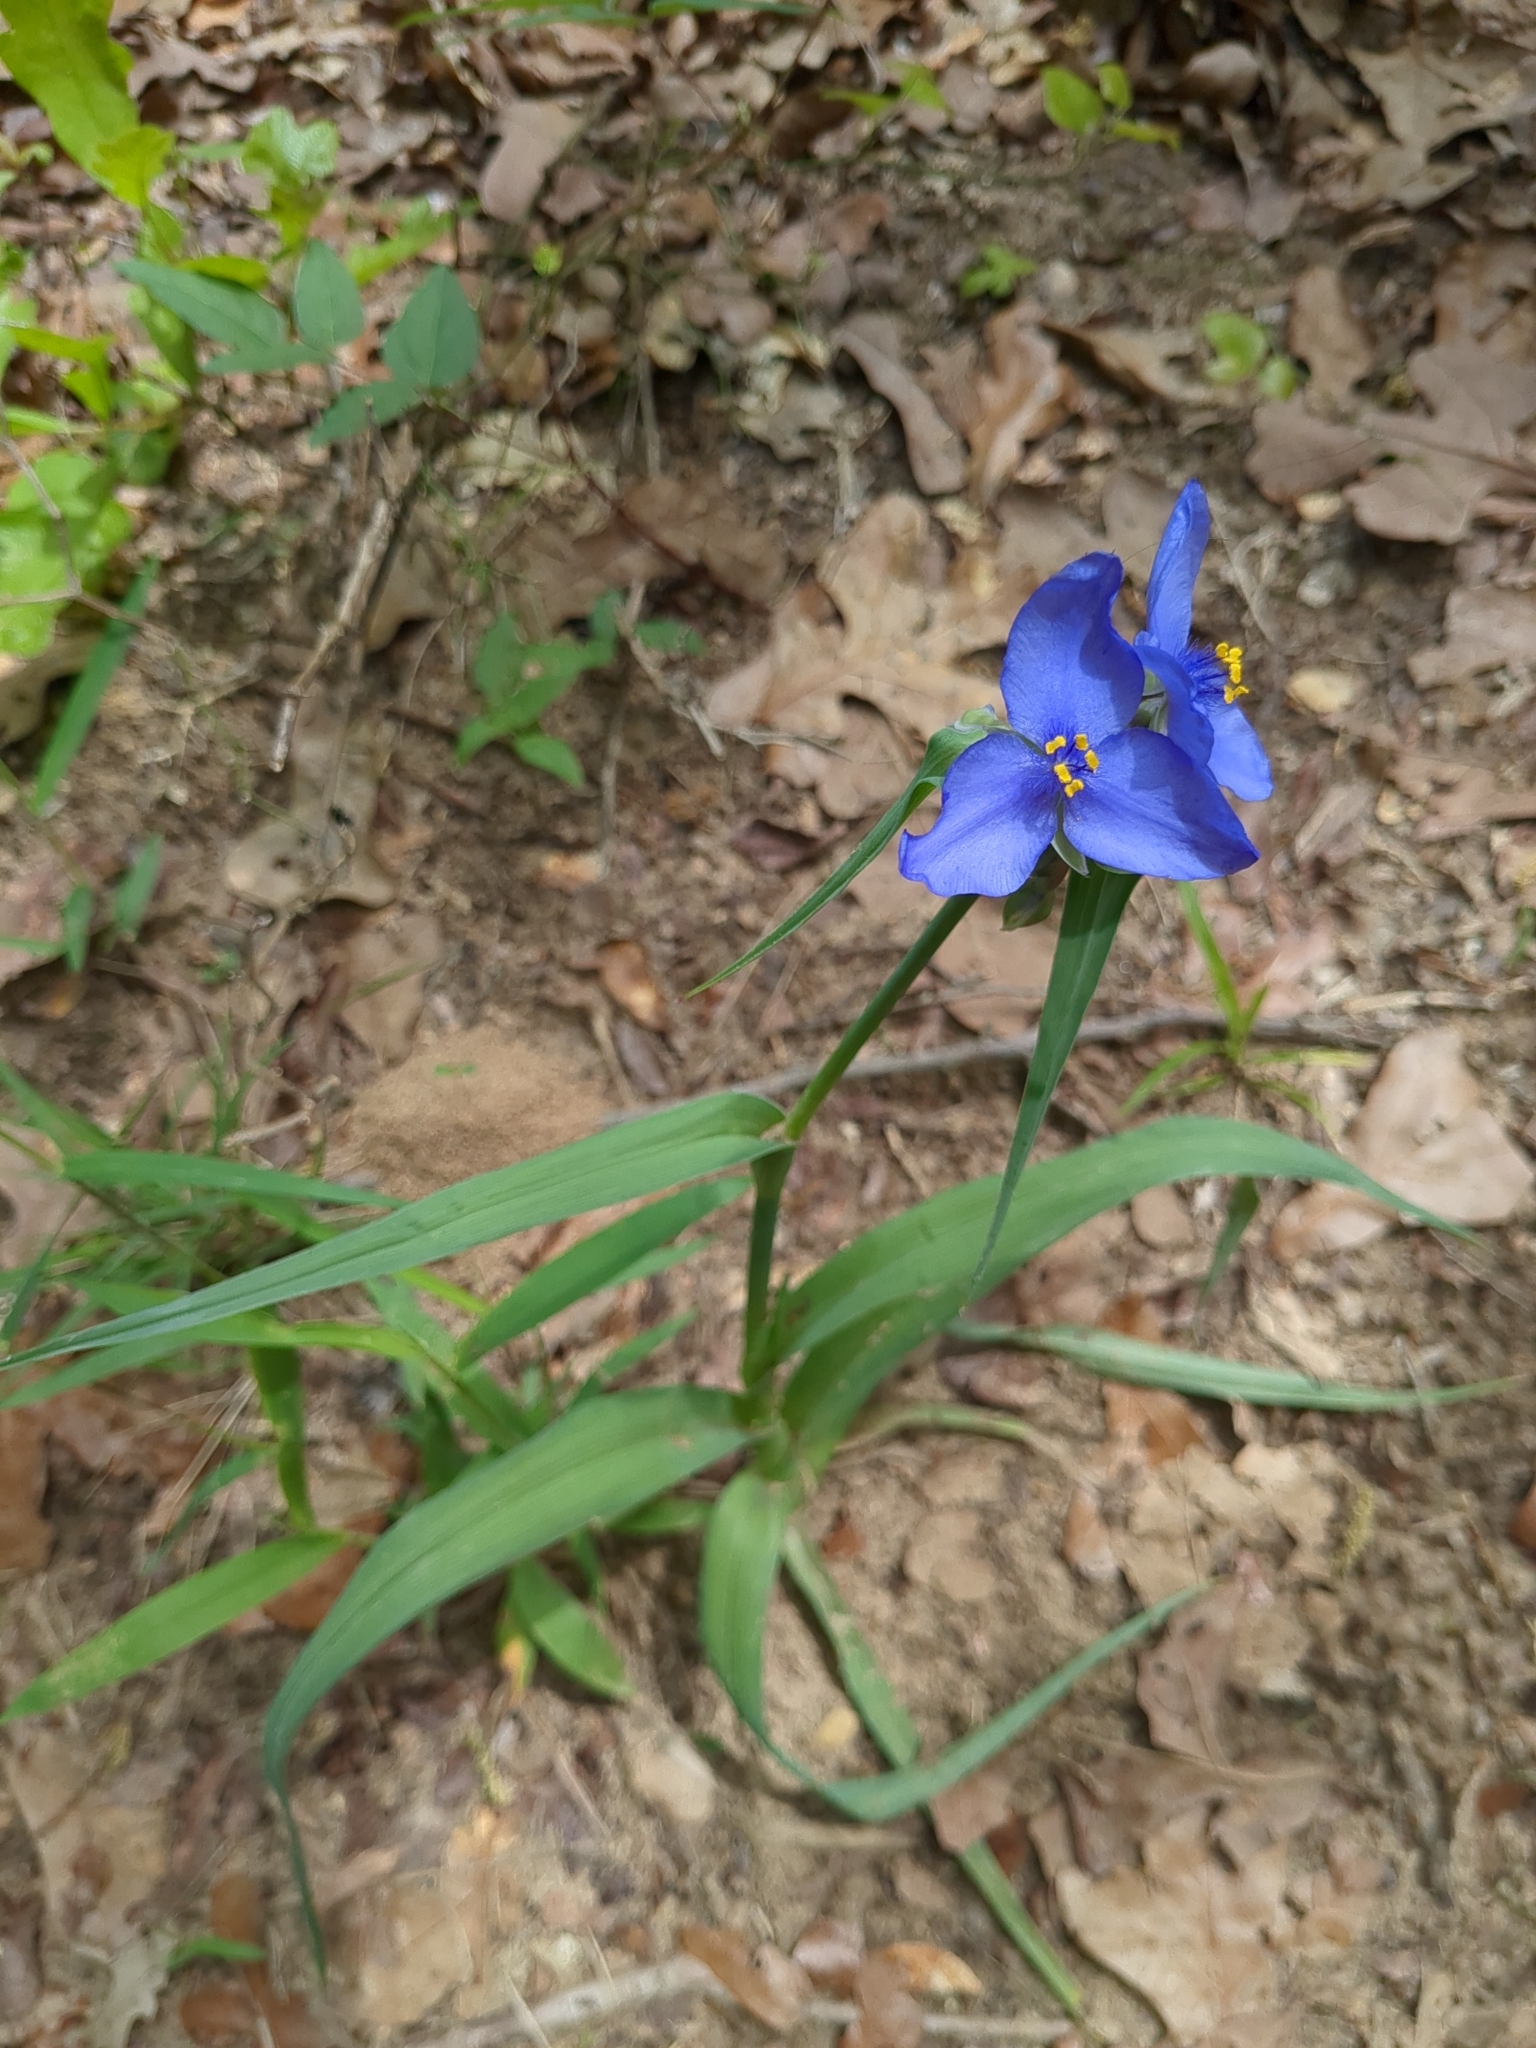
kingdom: Plantae
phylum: Tracheophyta
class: Liliopsida
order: Commelinales
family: Commelinaceae
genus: Tradescantia
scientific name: Tradescantia ohiensis
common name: Ohio spiderwort
